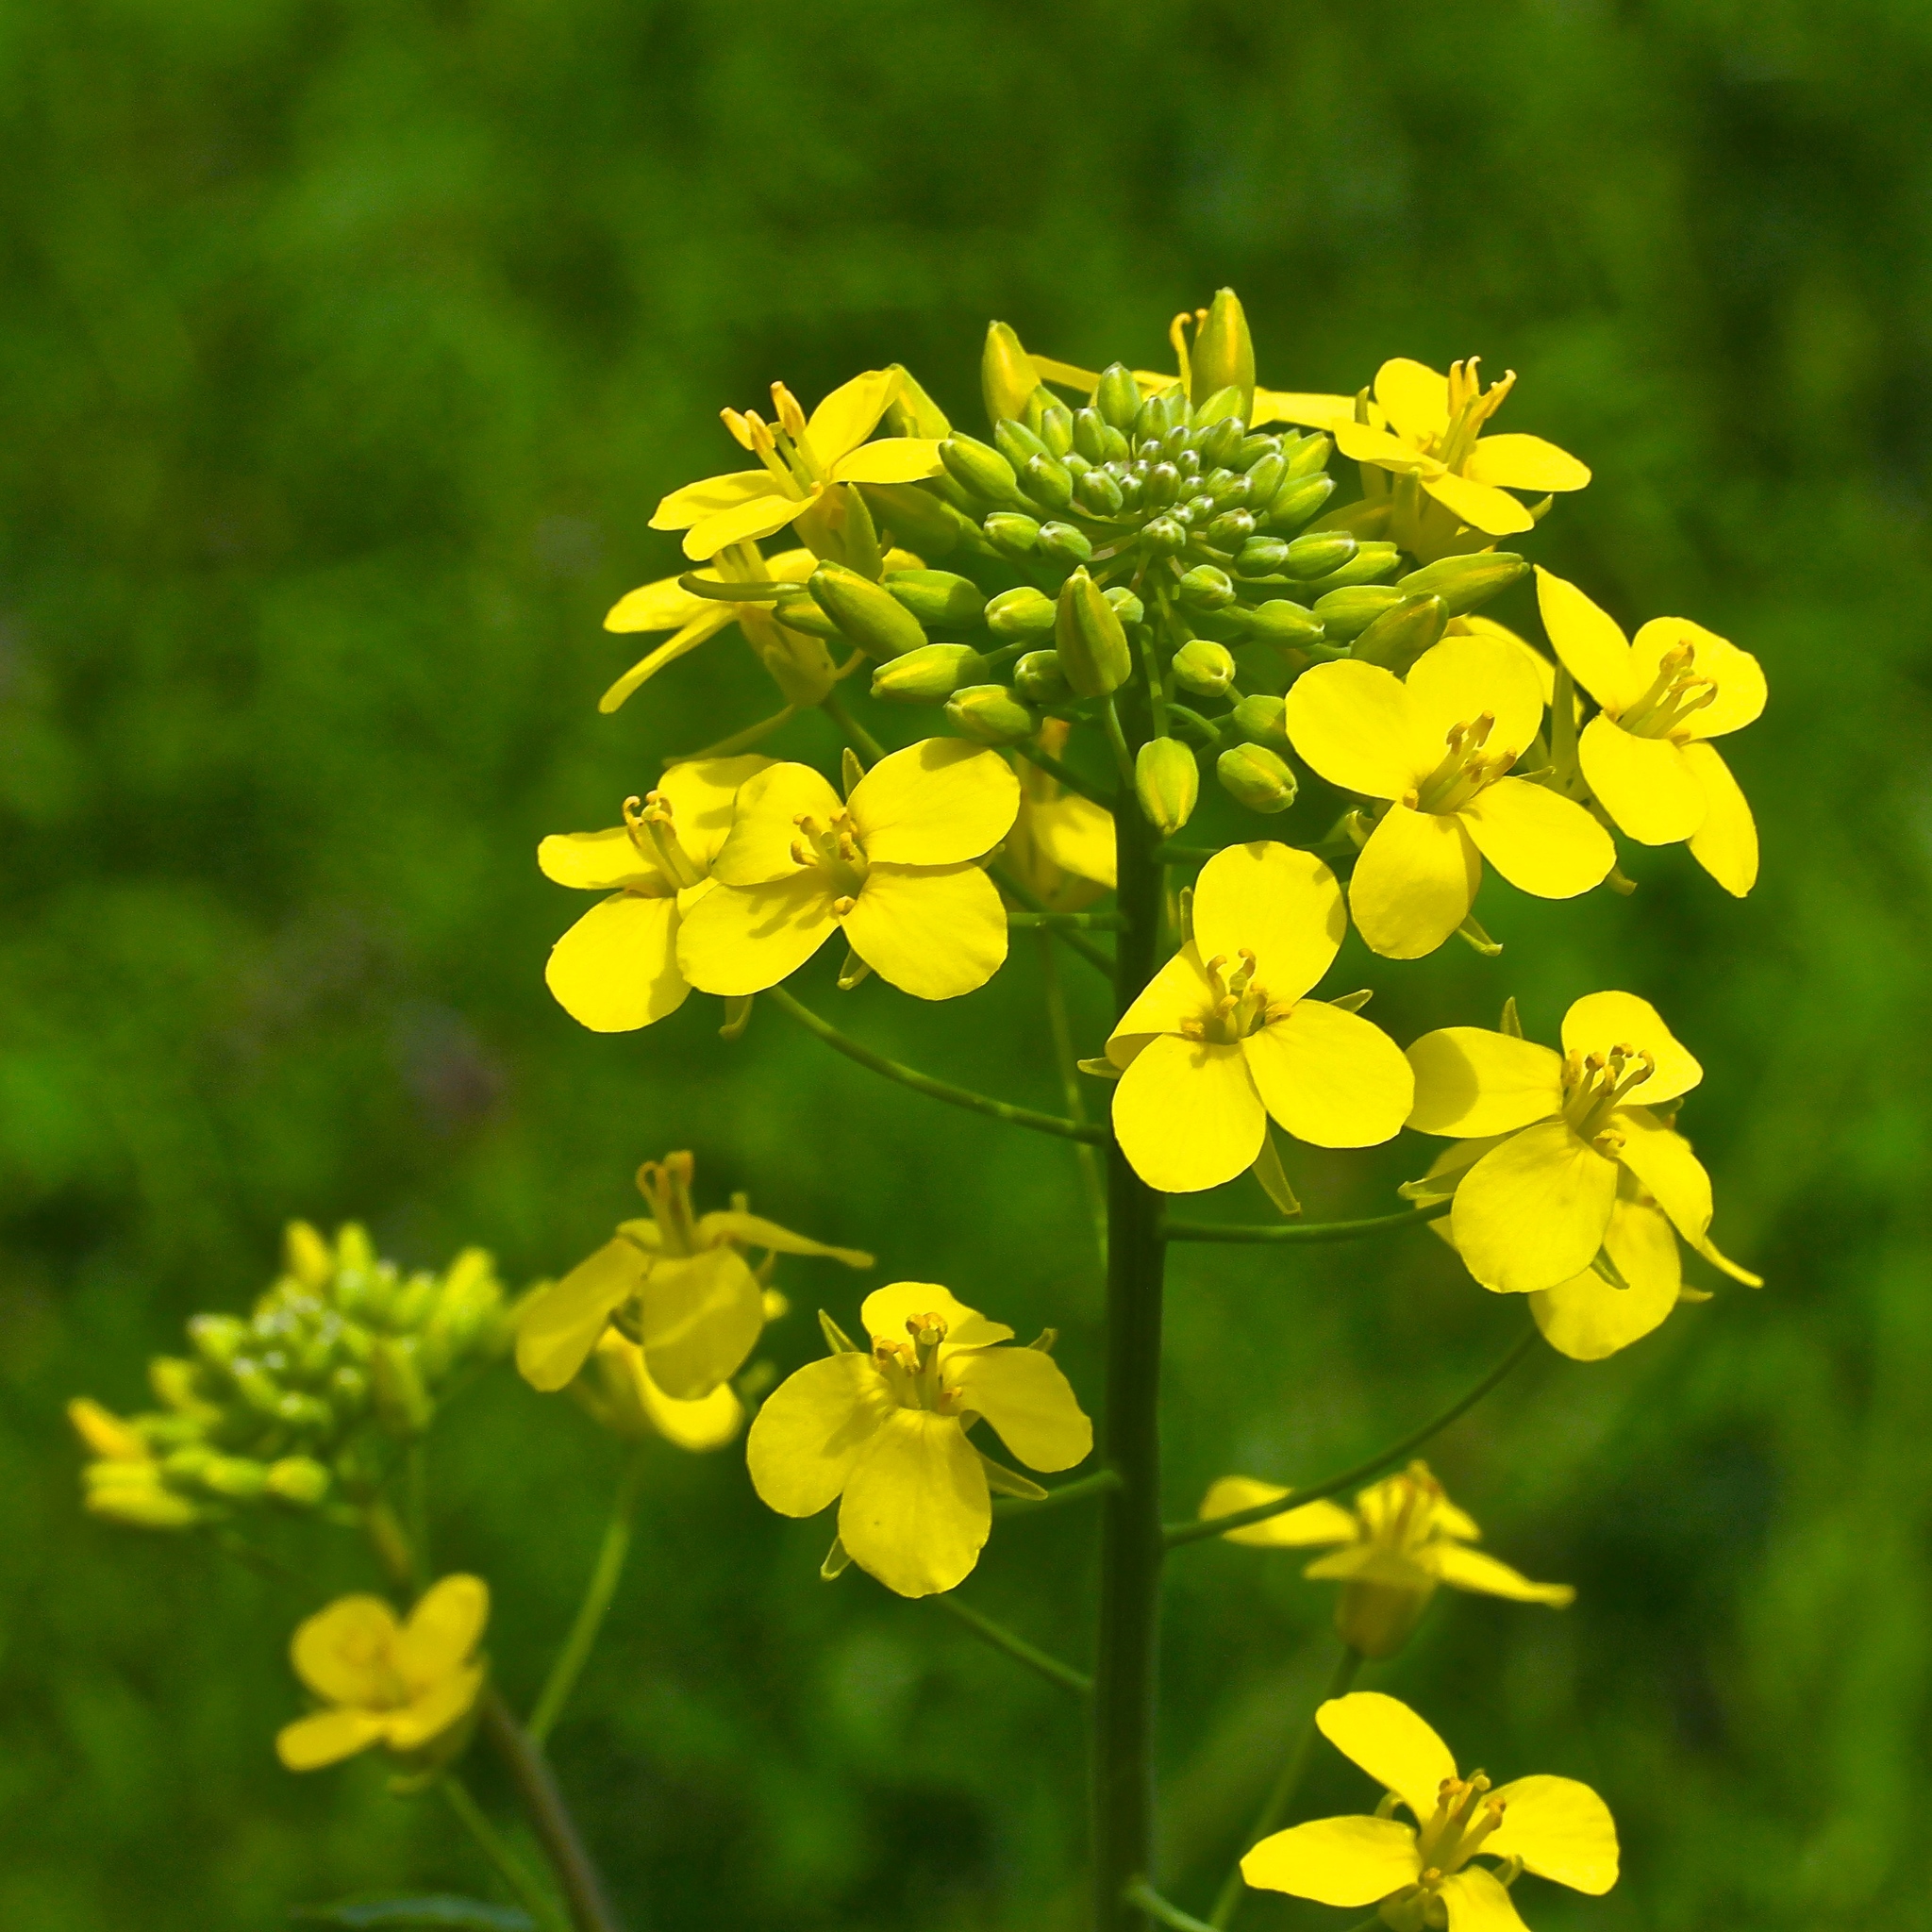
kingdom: Plantae
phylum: Tracheophyta
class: Magnoliopsida
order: Brassicales
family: Brassicaceae
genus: Brassica
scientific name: Brassica rapa
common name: Field mustard
